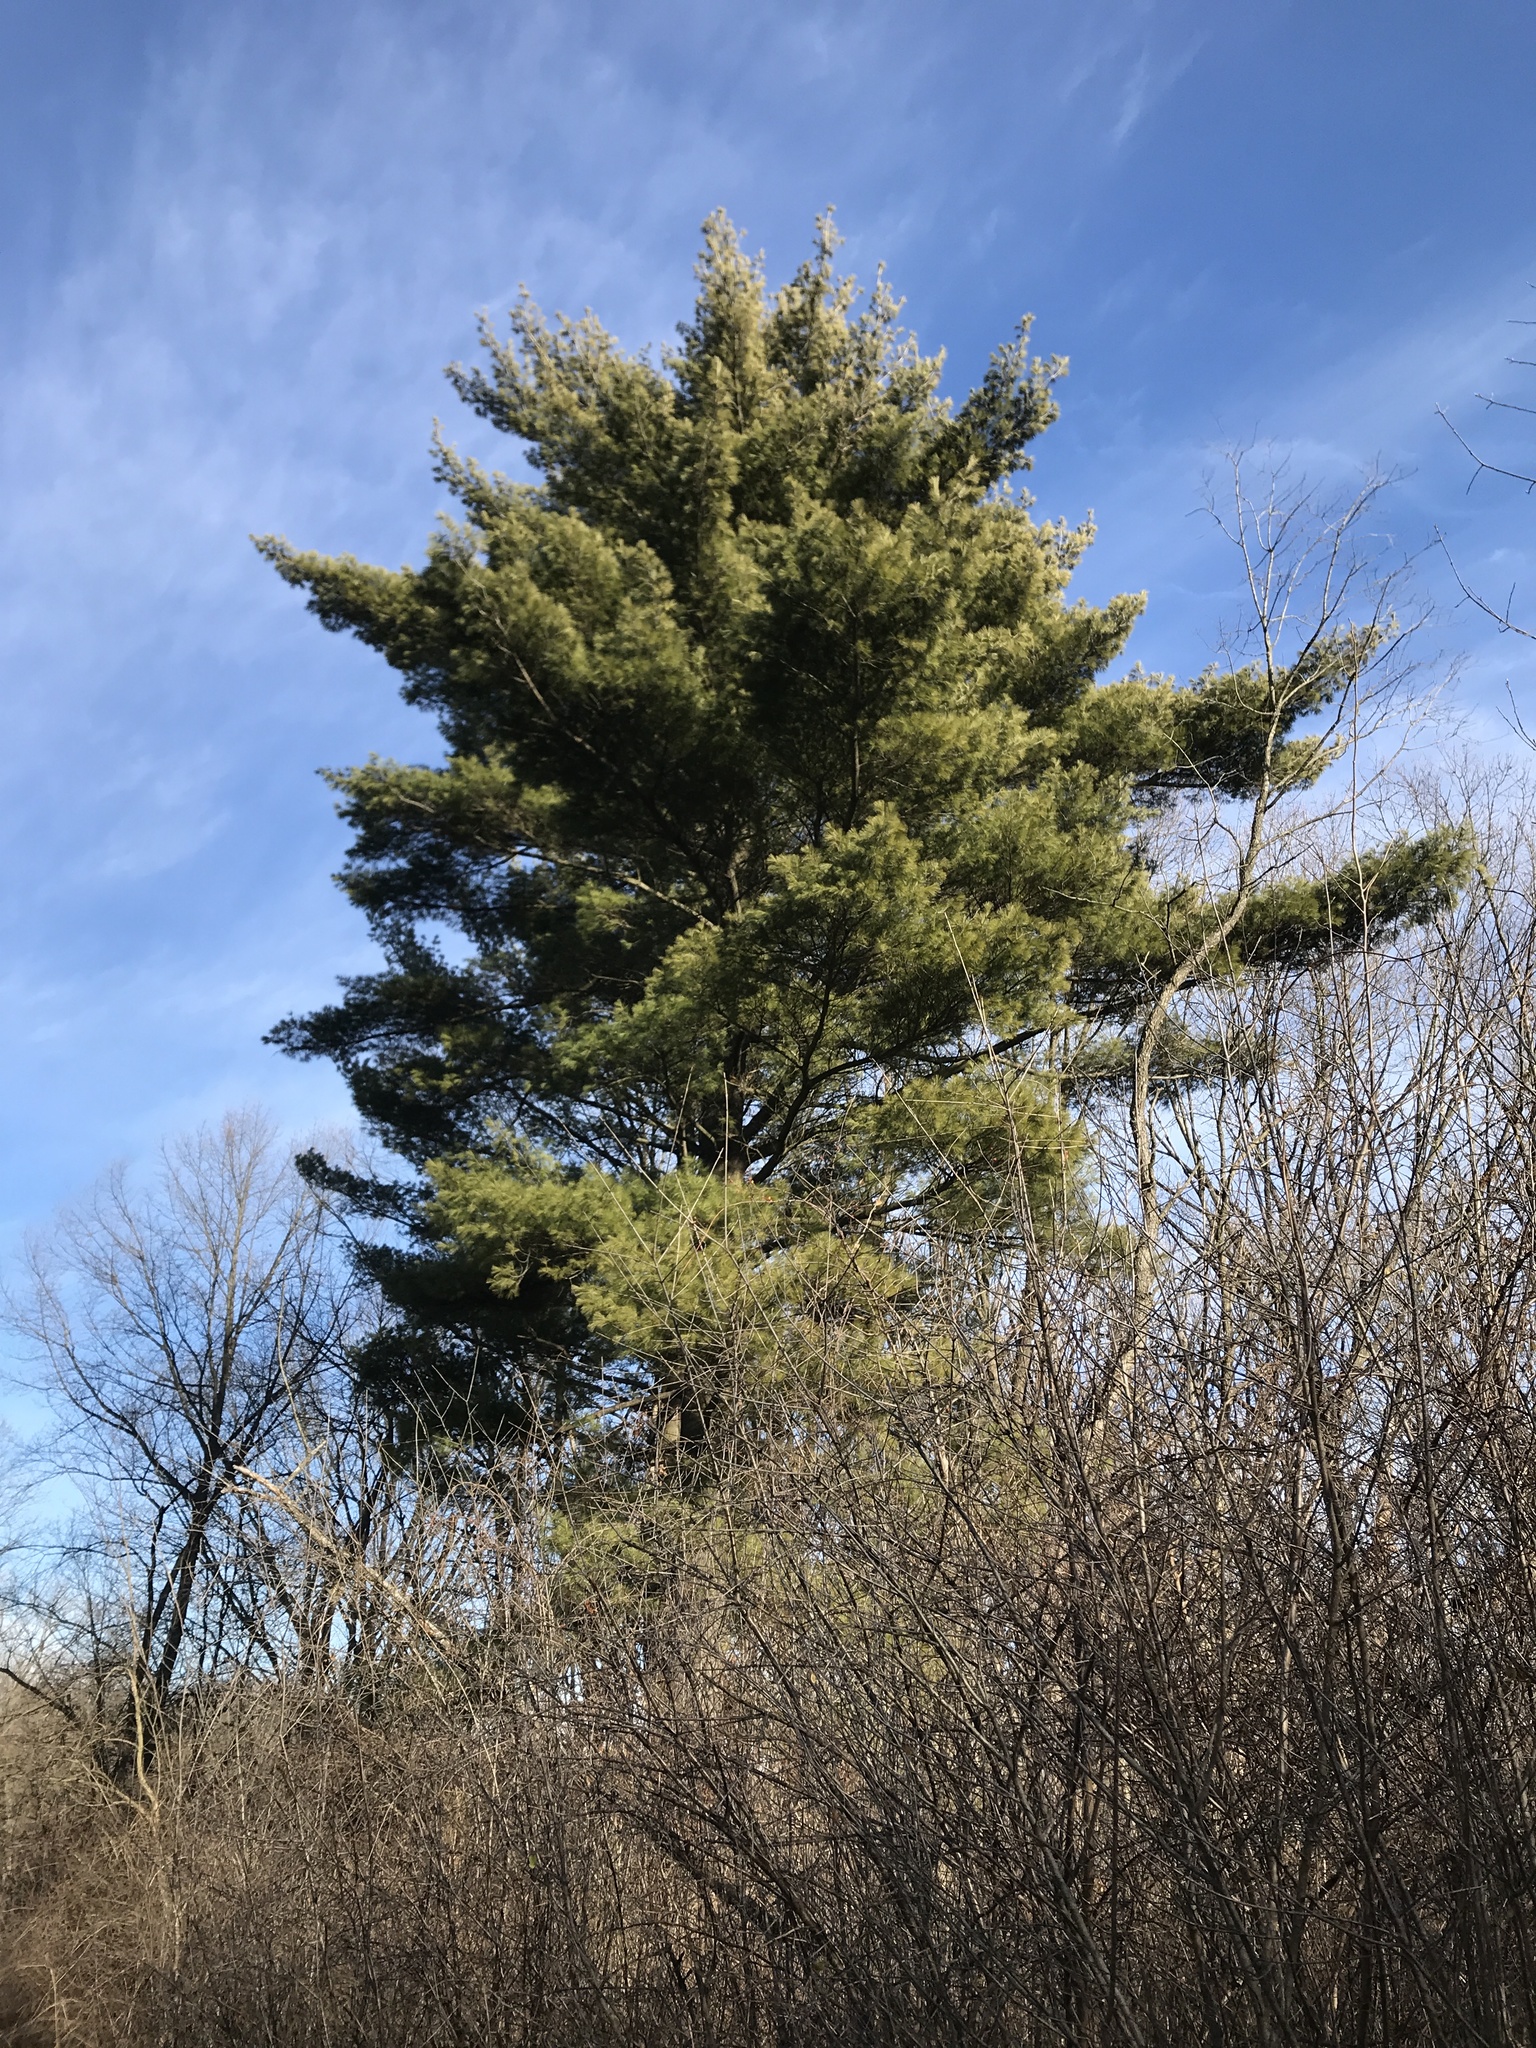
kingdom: Plantae
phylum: Tracheophyta
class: Pinopsida
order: Pinales
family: Pinaceae
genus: Pinus
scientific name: Pinus strobus
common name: Weymouth pine
